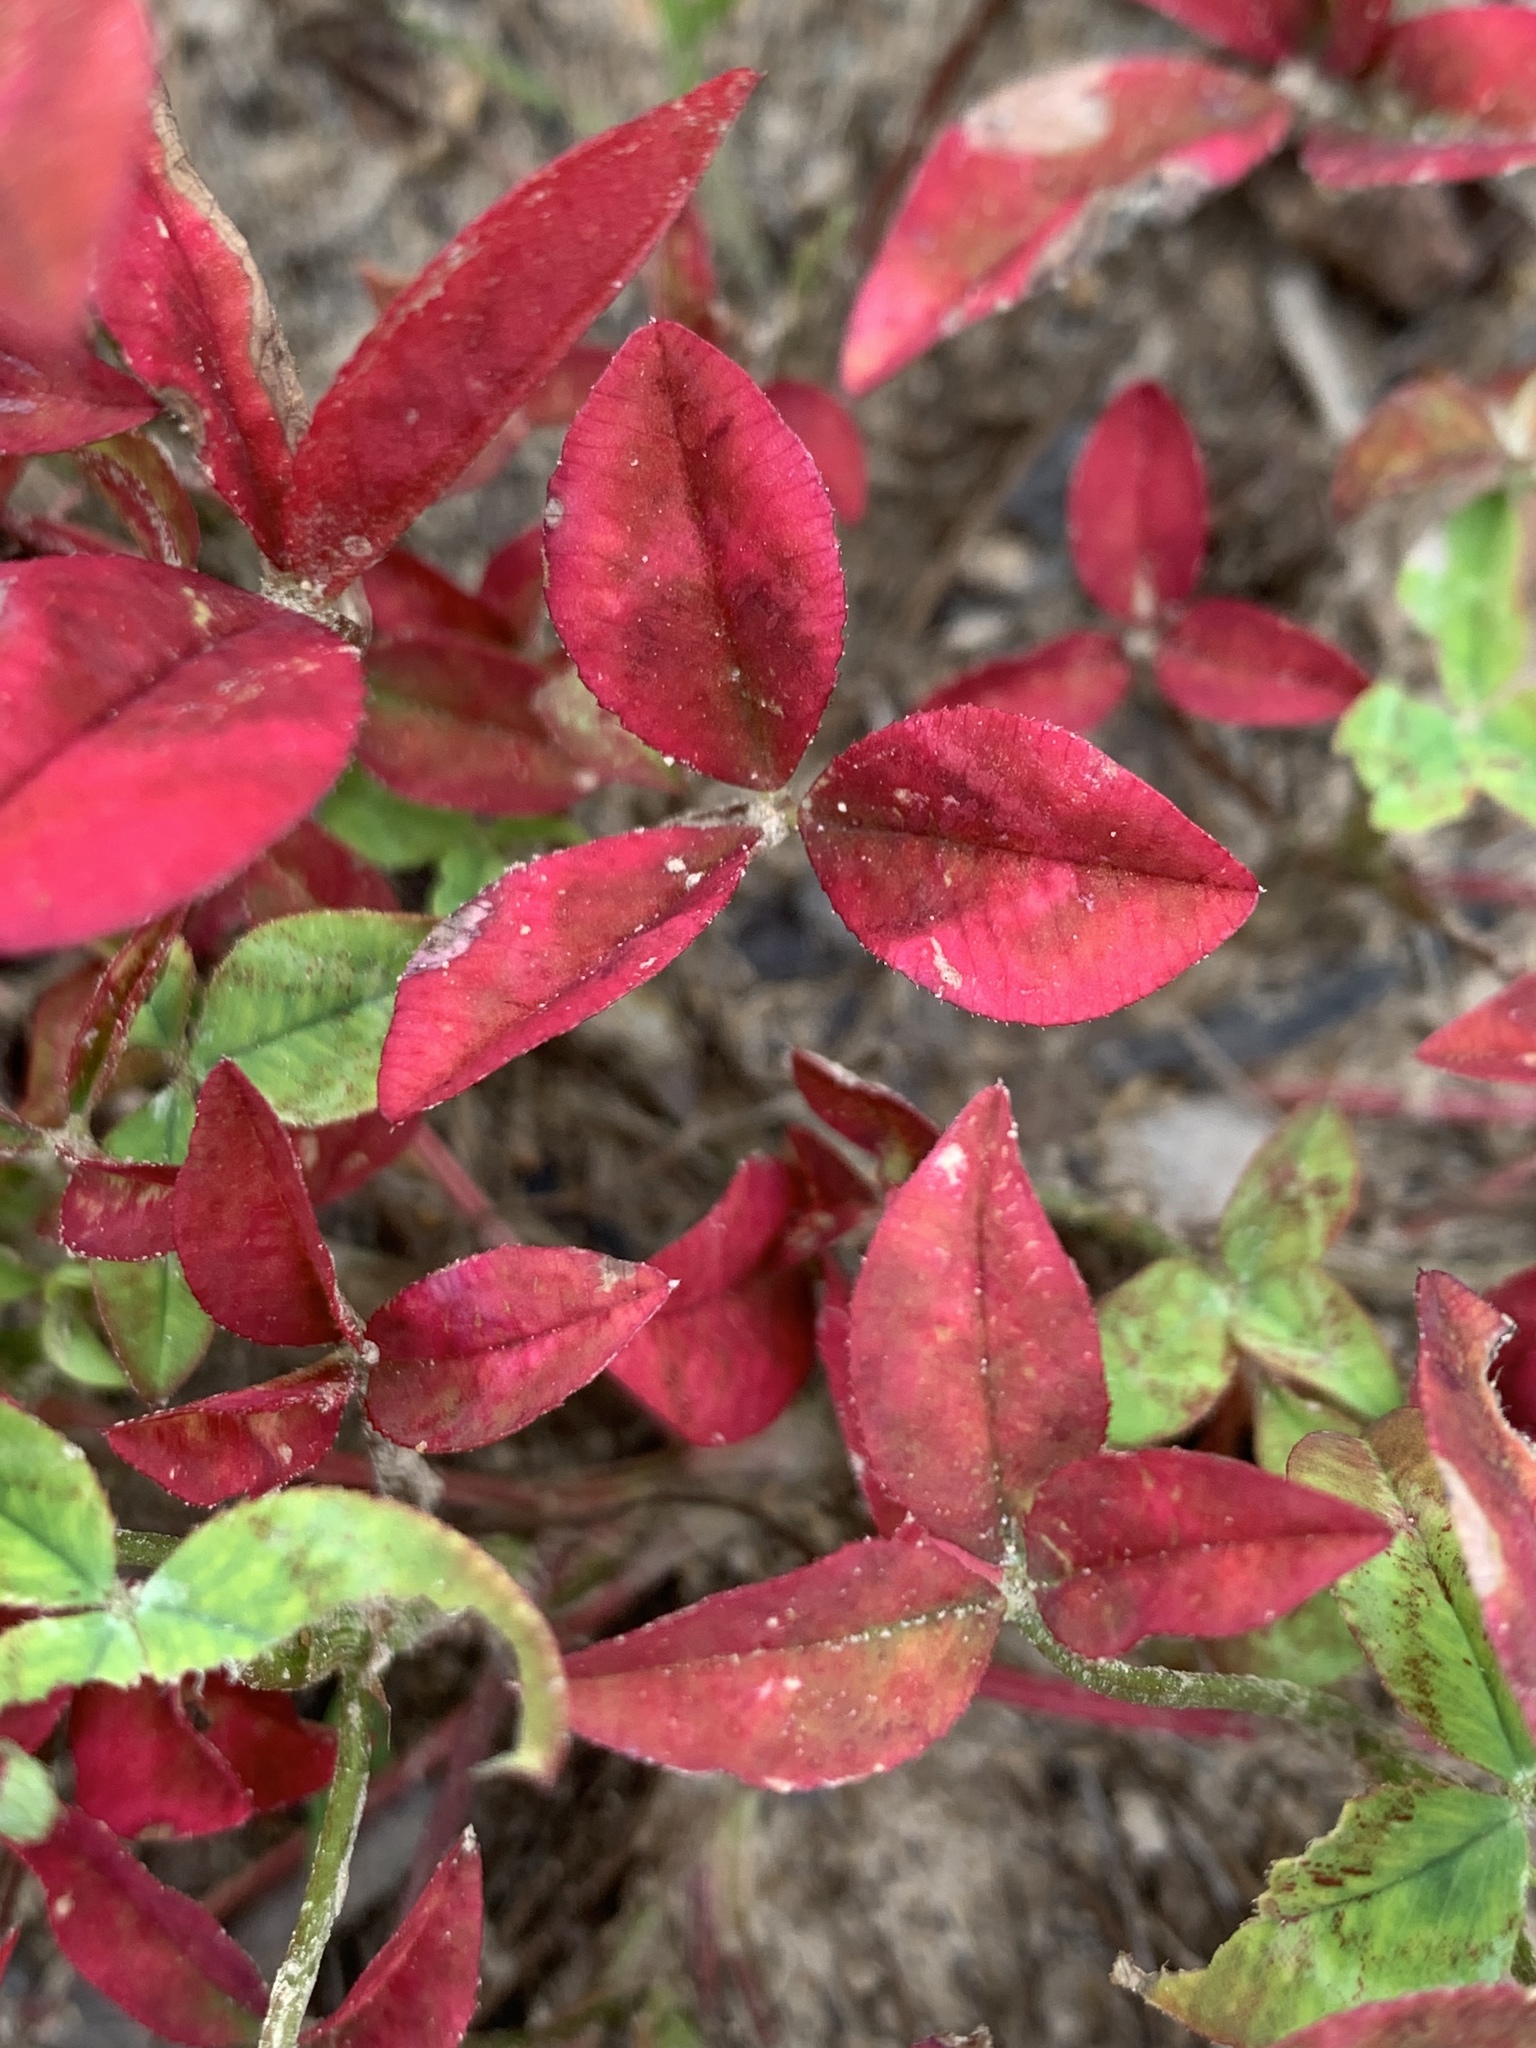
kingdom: Plantae
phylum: Tracheophyta
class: Magnoliopsida
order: Fabales
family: Fabaceae
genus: Trifolium
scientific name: Trifolium vesiculosum
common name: Arrowleaf clover
